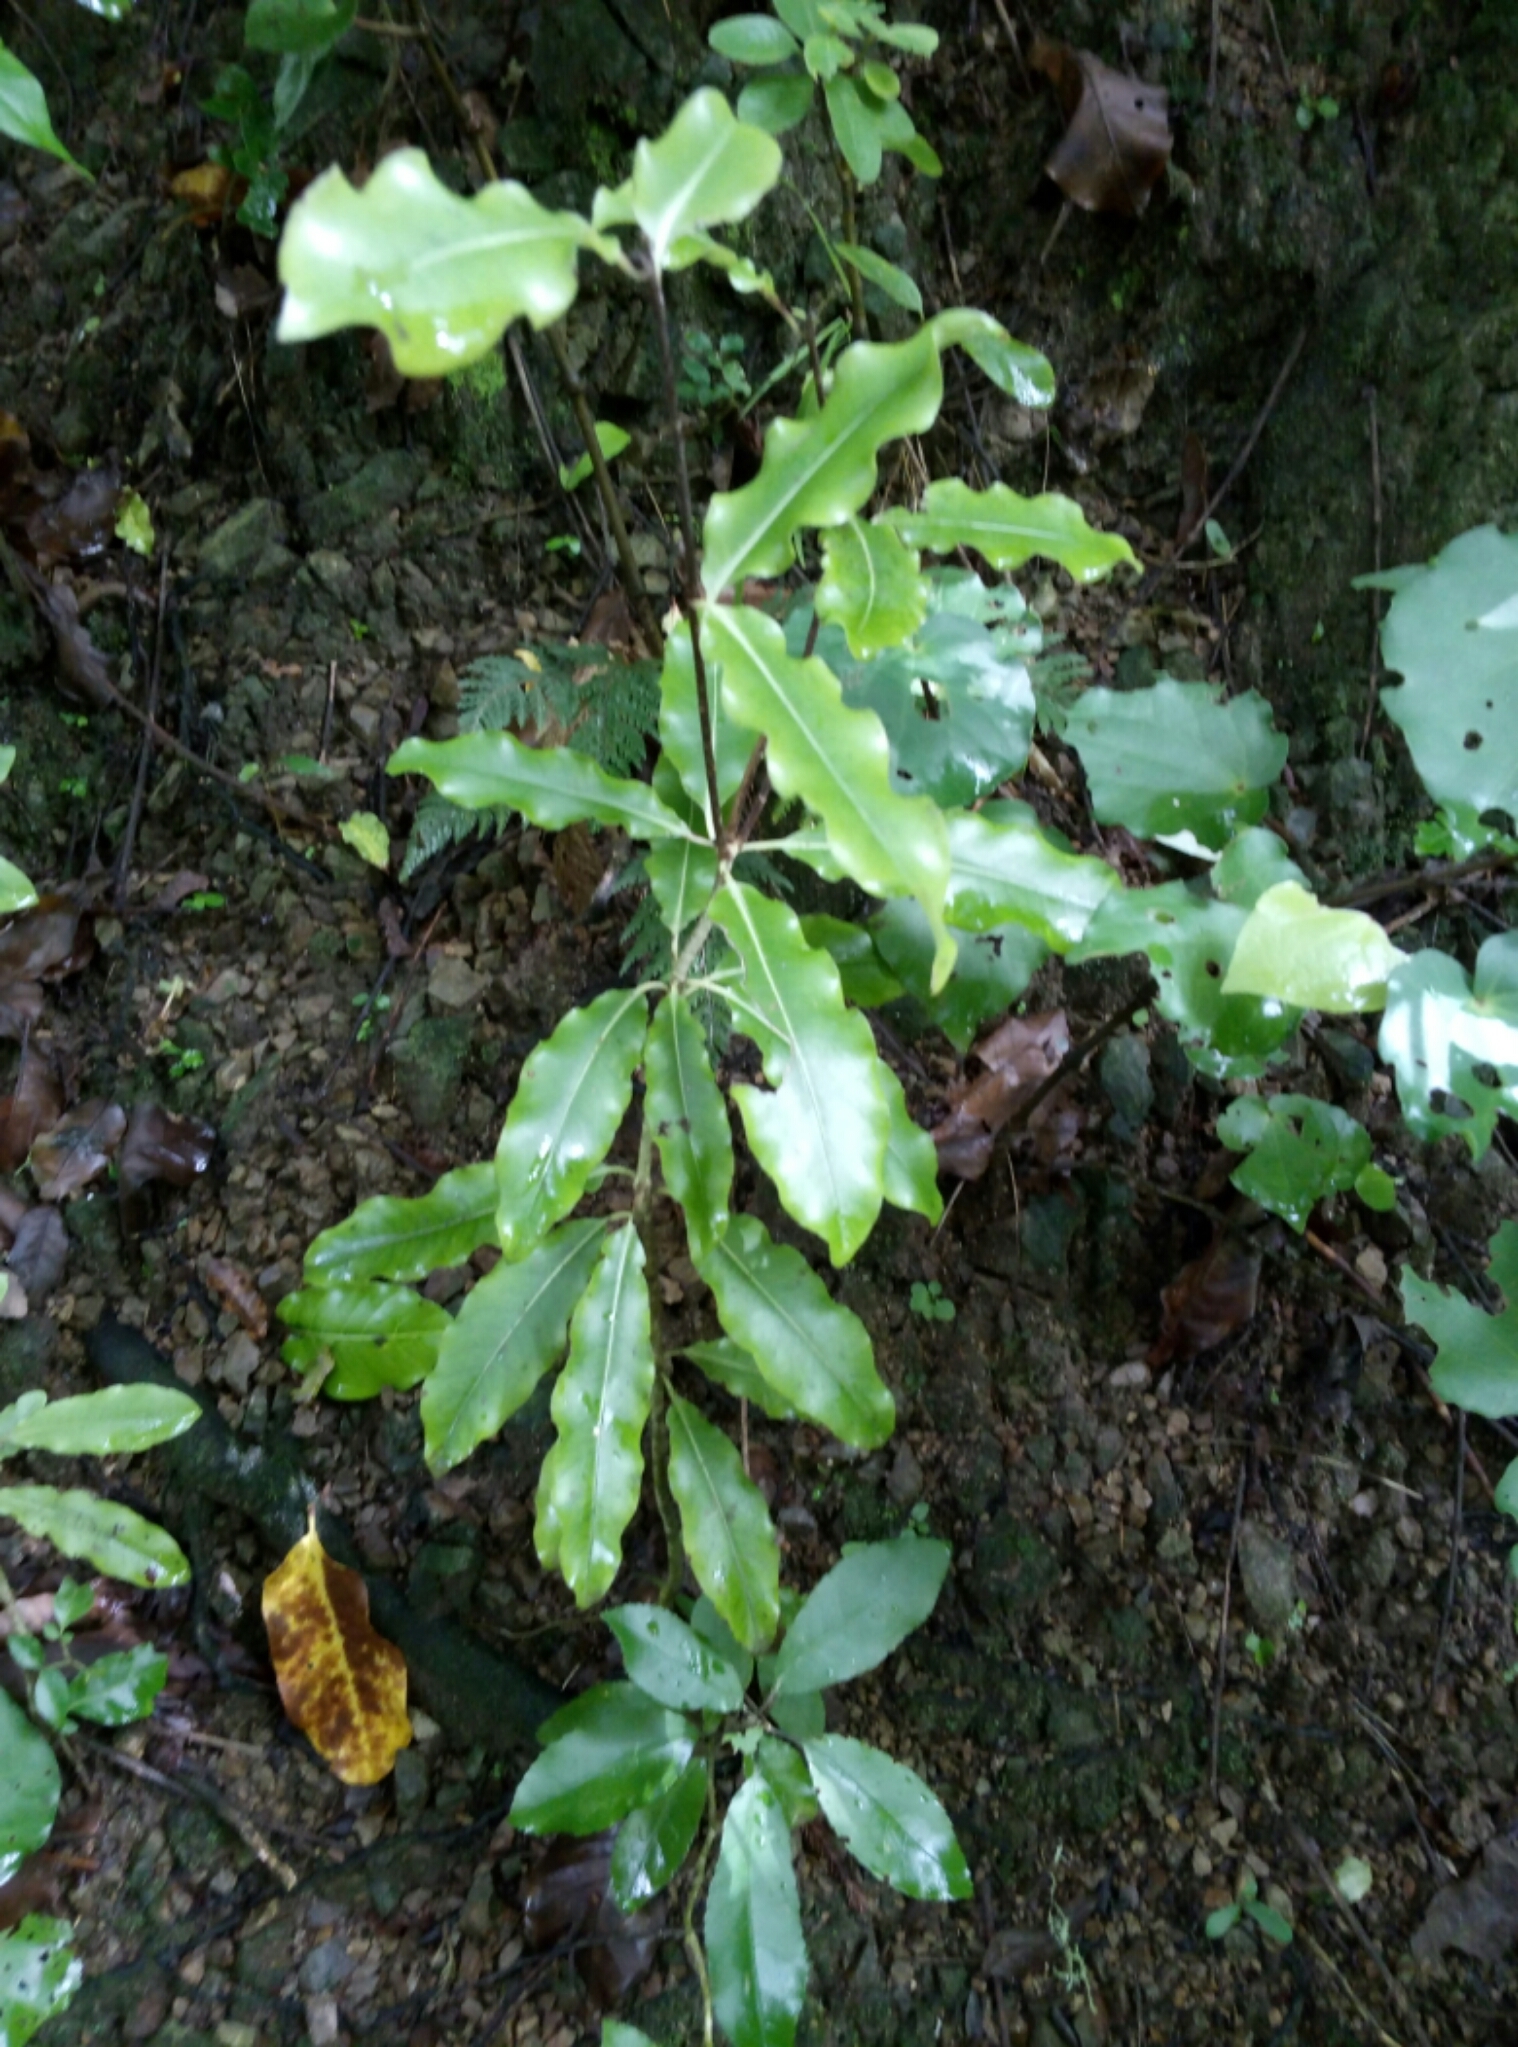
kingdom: Plantae
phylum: Tracheophyta
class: Magnoliopsida
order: Apiales
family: Pittosporaceae
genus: Pittosporum
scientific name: Pittosporum eugenioides
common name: Lemonwood
